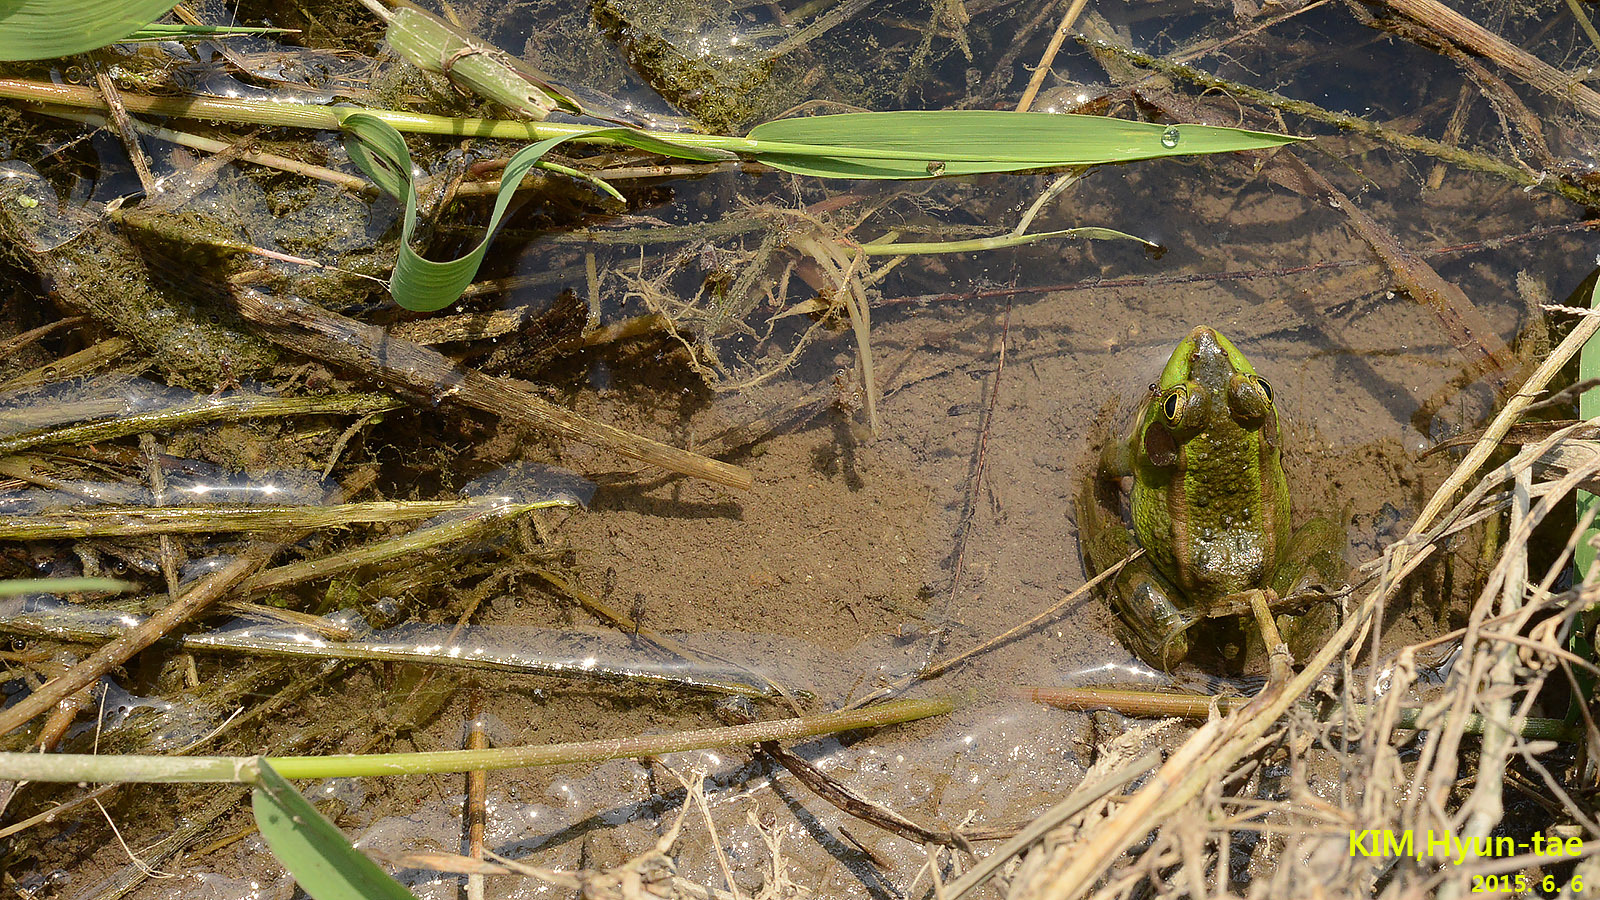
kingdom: Animalia
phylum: Chordata
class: Amphibia
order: Anura
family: Ranidae
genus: Pelophylax
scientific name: Pelophylax chosenicus
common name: Gold-spotted pond frog
